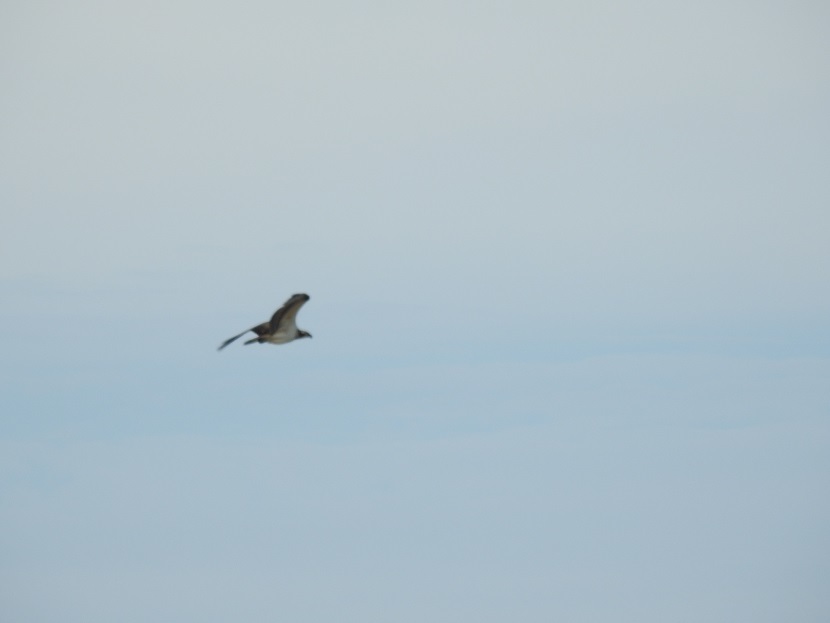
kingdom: Animalia
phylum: Chordata
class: Aves
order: Accipitriformes
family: Pandionidae
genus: Pandion
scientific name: Pandion haliaetus
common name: Osprey
